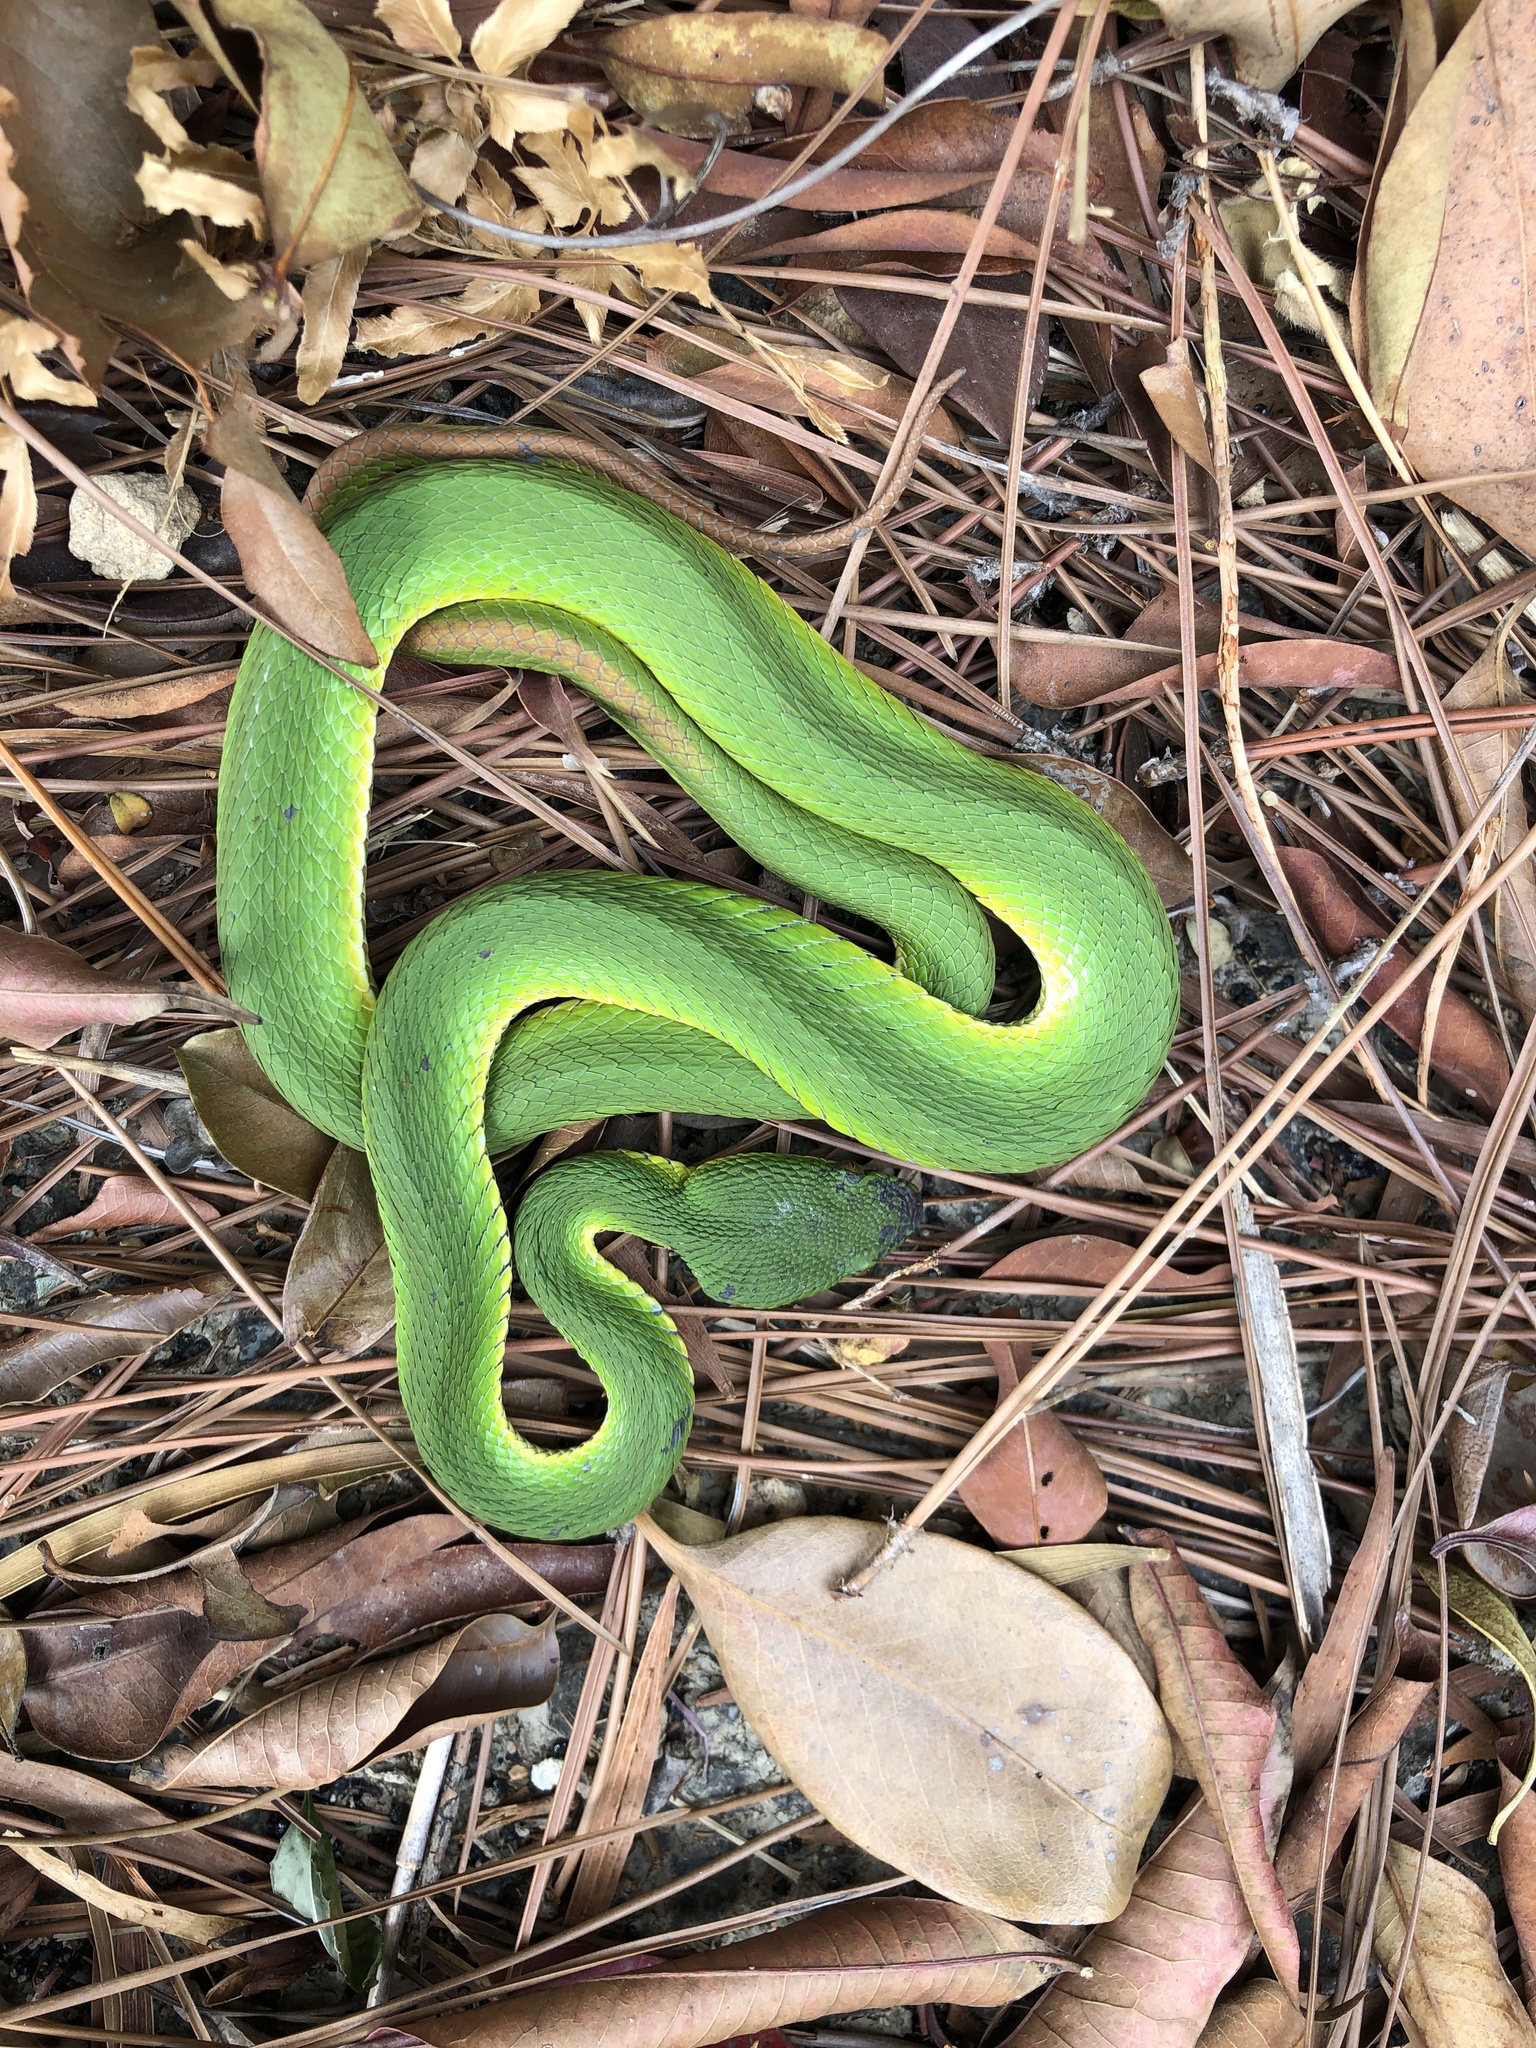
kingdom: Animalia
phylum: Chordata
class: Squamata
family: Viperidae
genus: Trimeresurus
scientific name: Trimeresurus albolabris
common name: White-lipped pitviper
